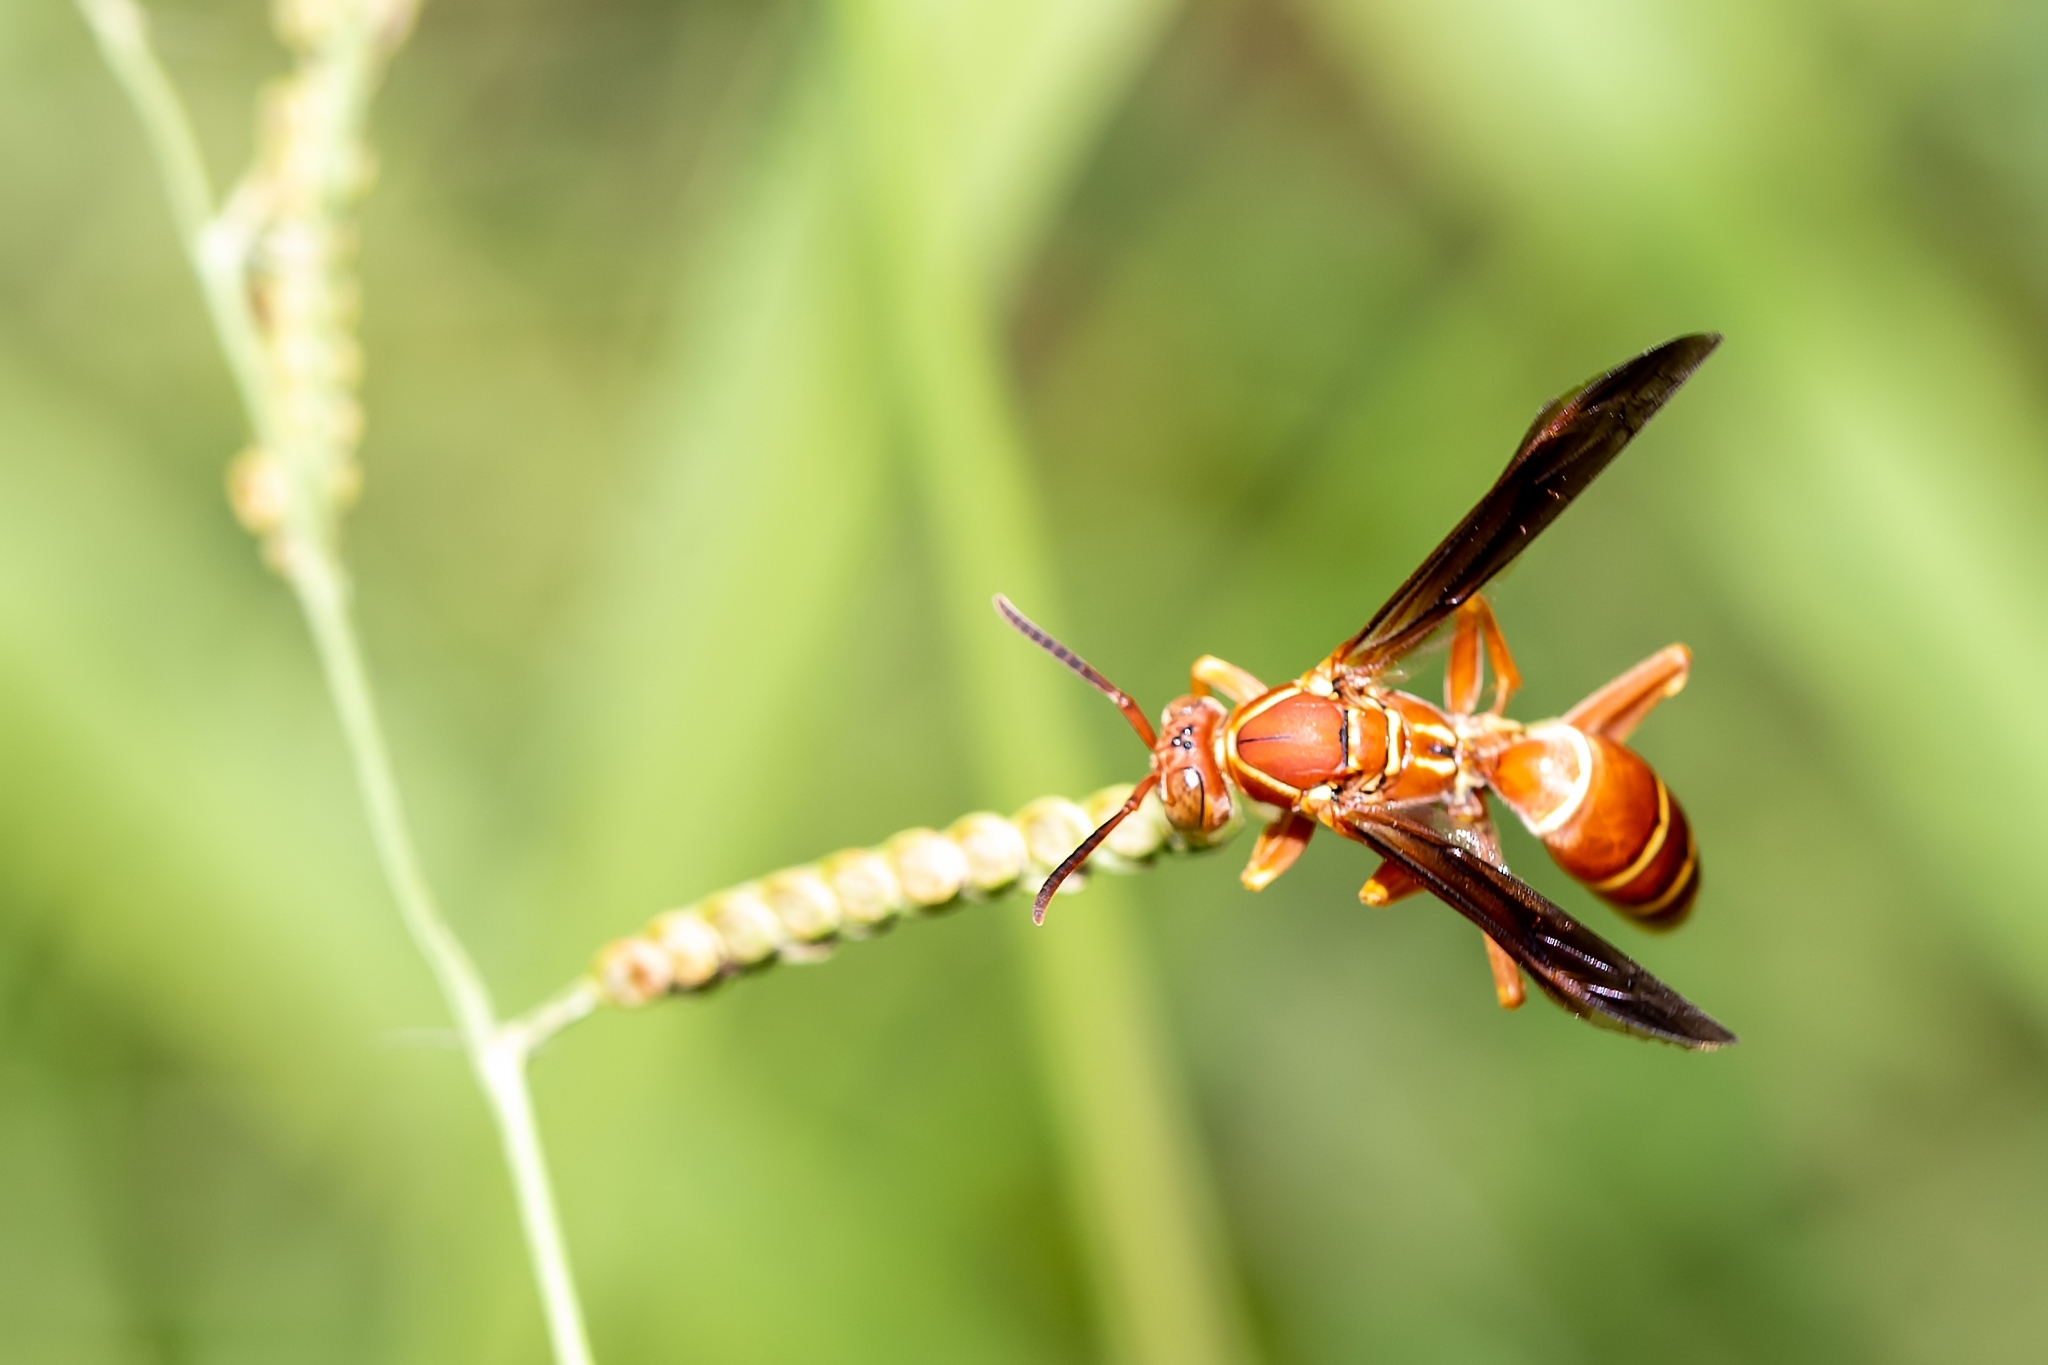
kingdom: Animalia
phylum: Arthropoda
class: Insecta
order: Hymenoptera
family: Eumenidae
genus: Polistes
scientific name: Polistes bellicosus
